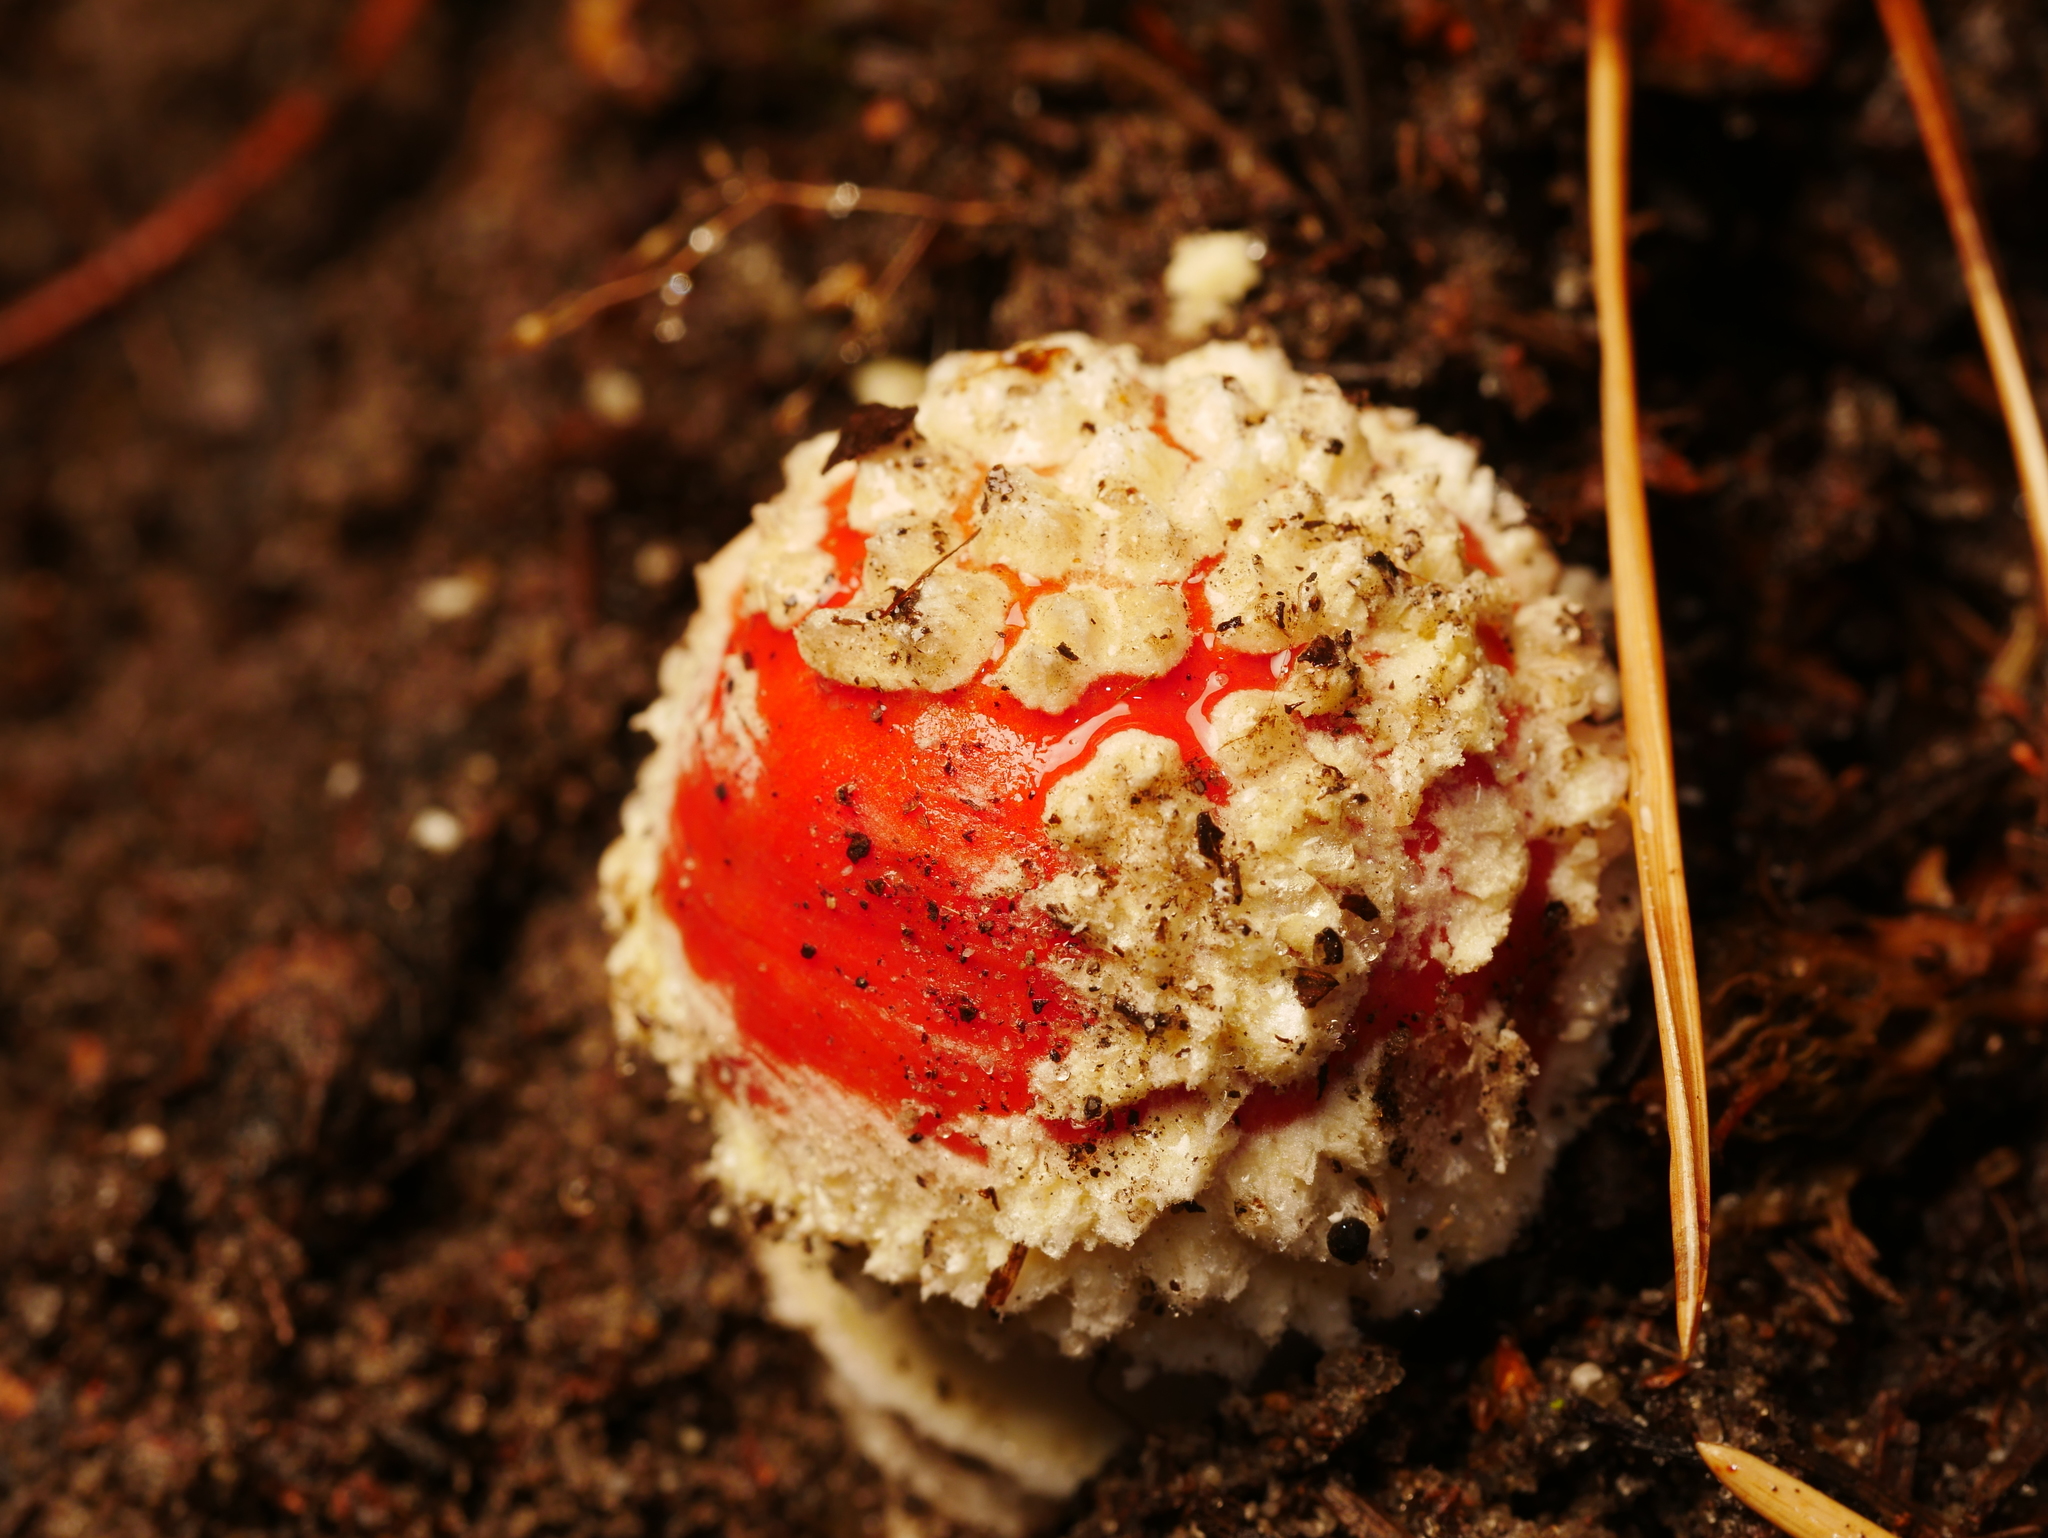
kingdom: Fungi
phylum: Basidiomycota
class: Agaricomycetes
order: Agaricales
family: Amanitaceae
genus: Amanita
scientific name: Amanita muscaria
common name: Fly agaric
